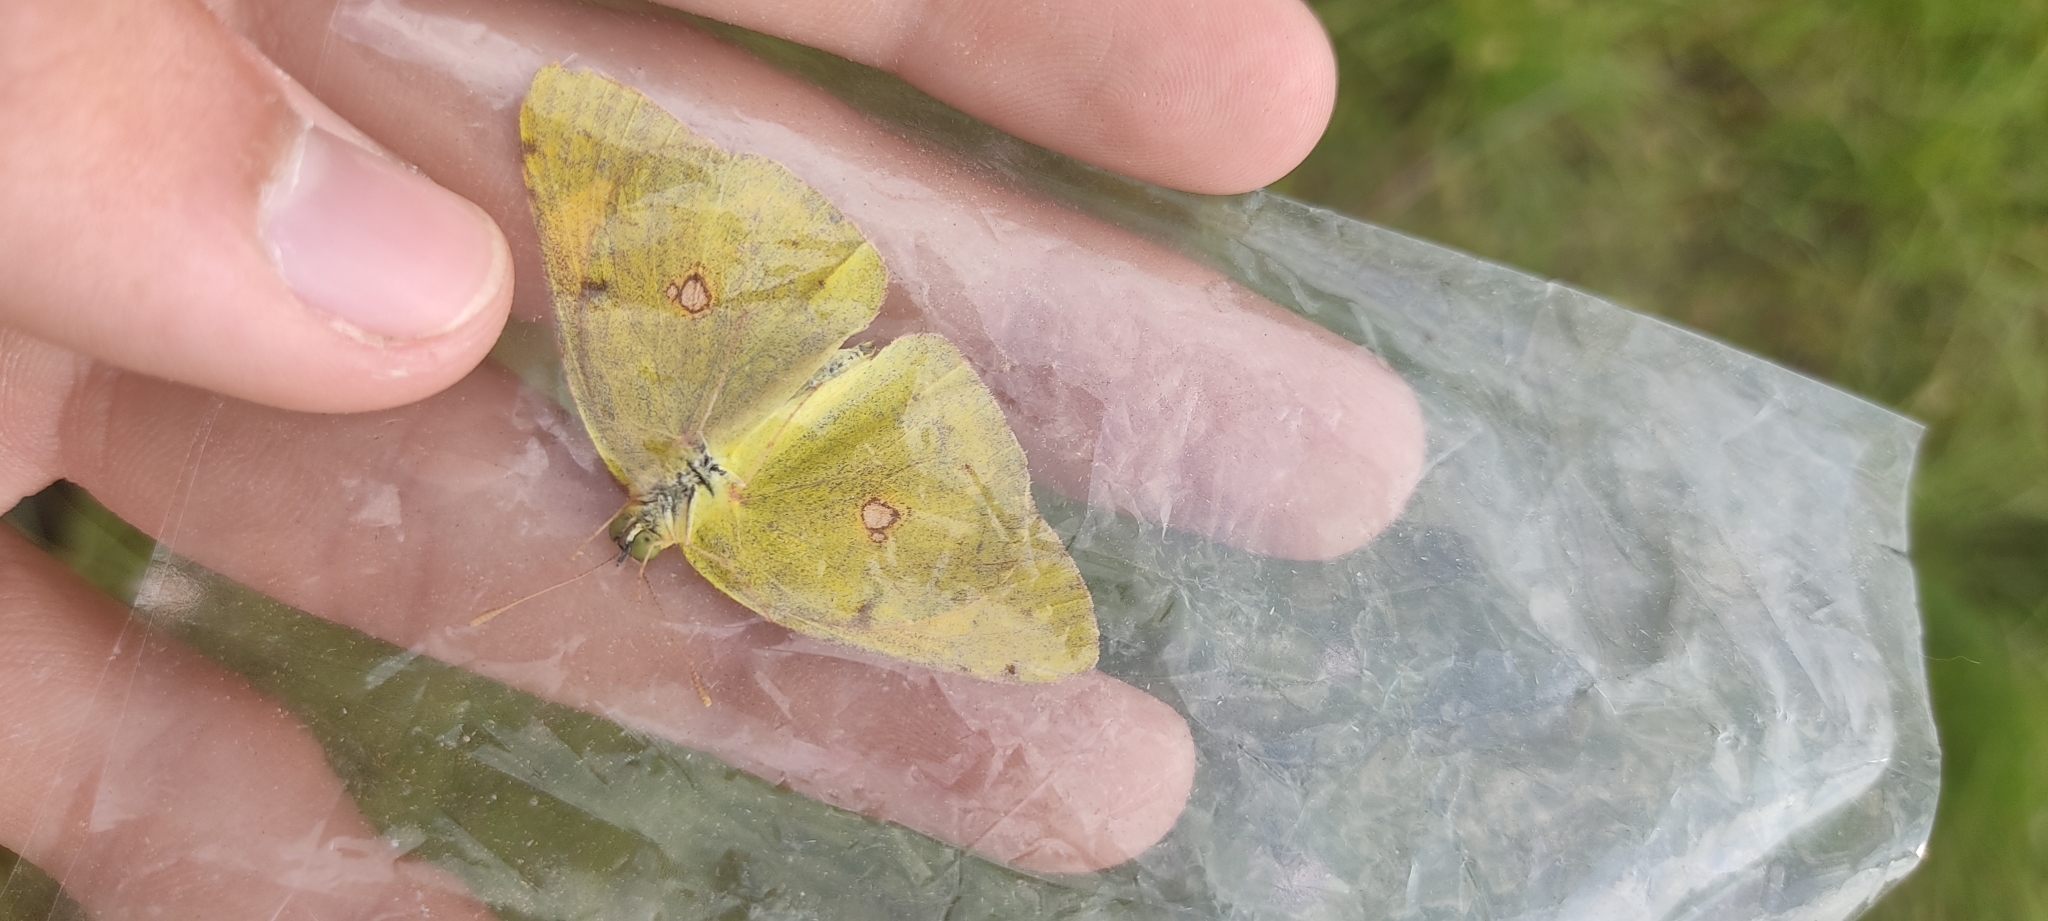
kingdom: Animalia
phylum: Arthropoda
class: Insecta
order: Lepidoptera
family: Pieridae
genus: Colias
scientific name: Colias croceus
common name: Clouded yellow
